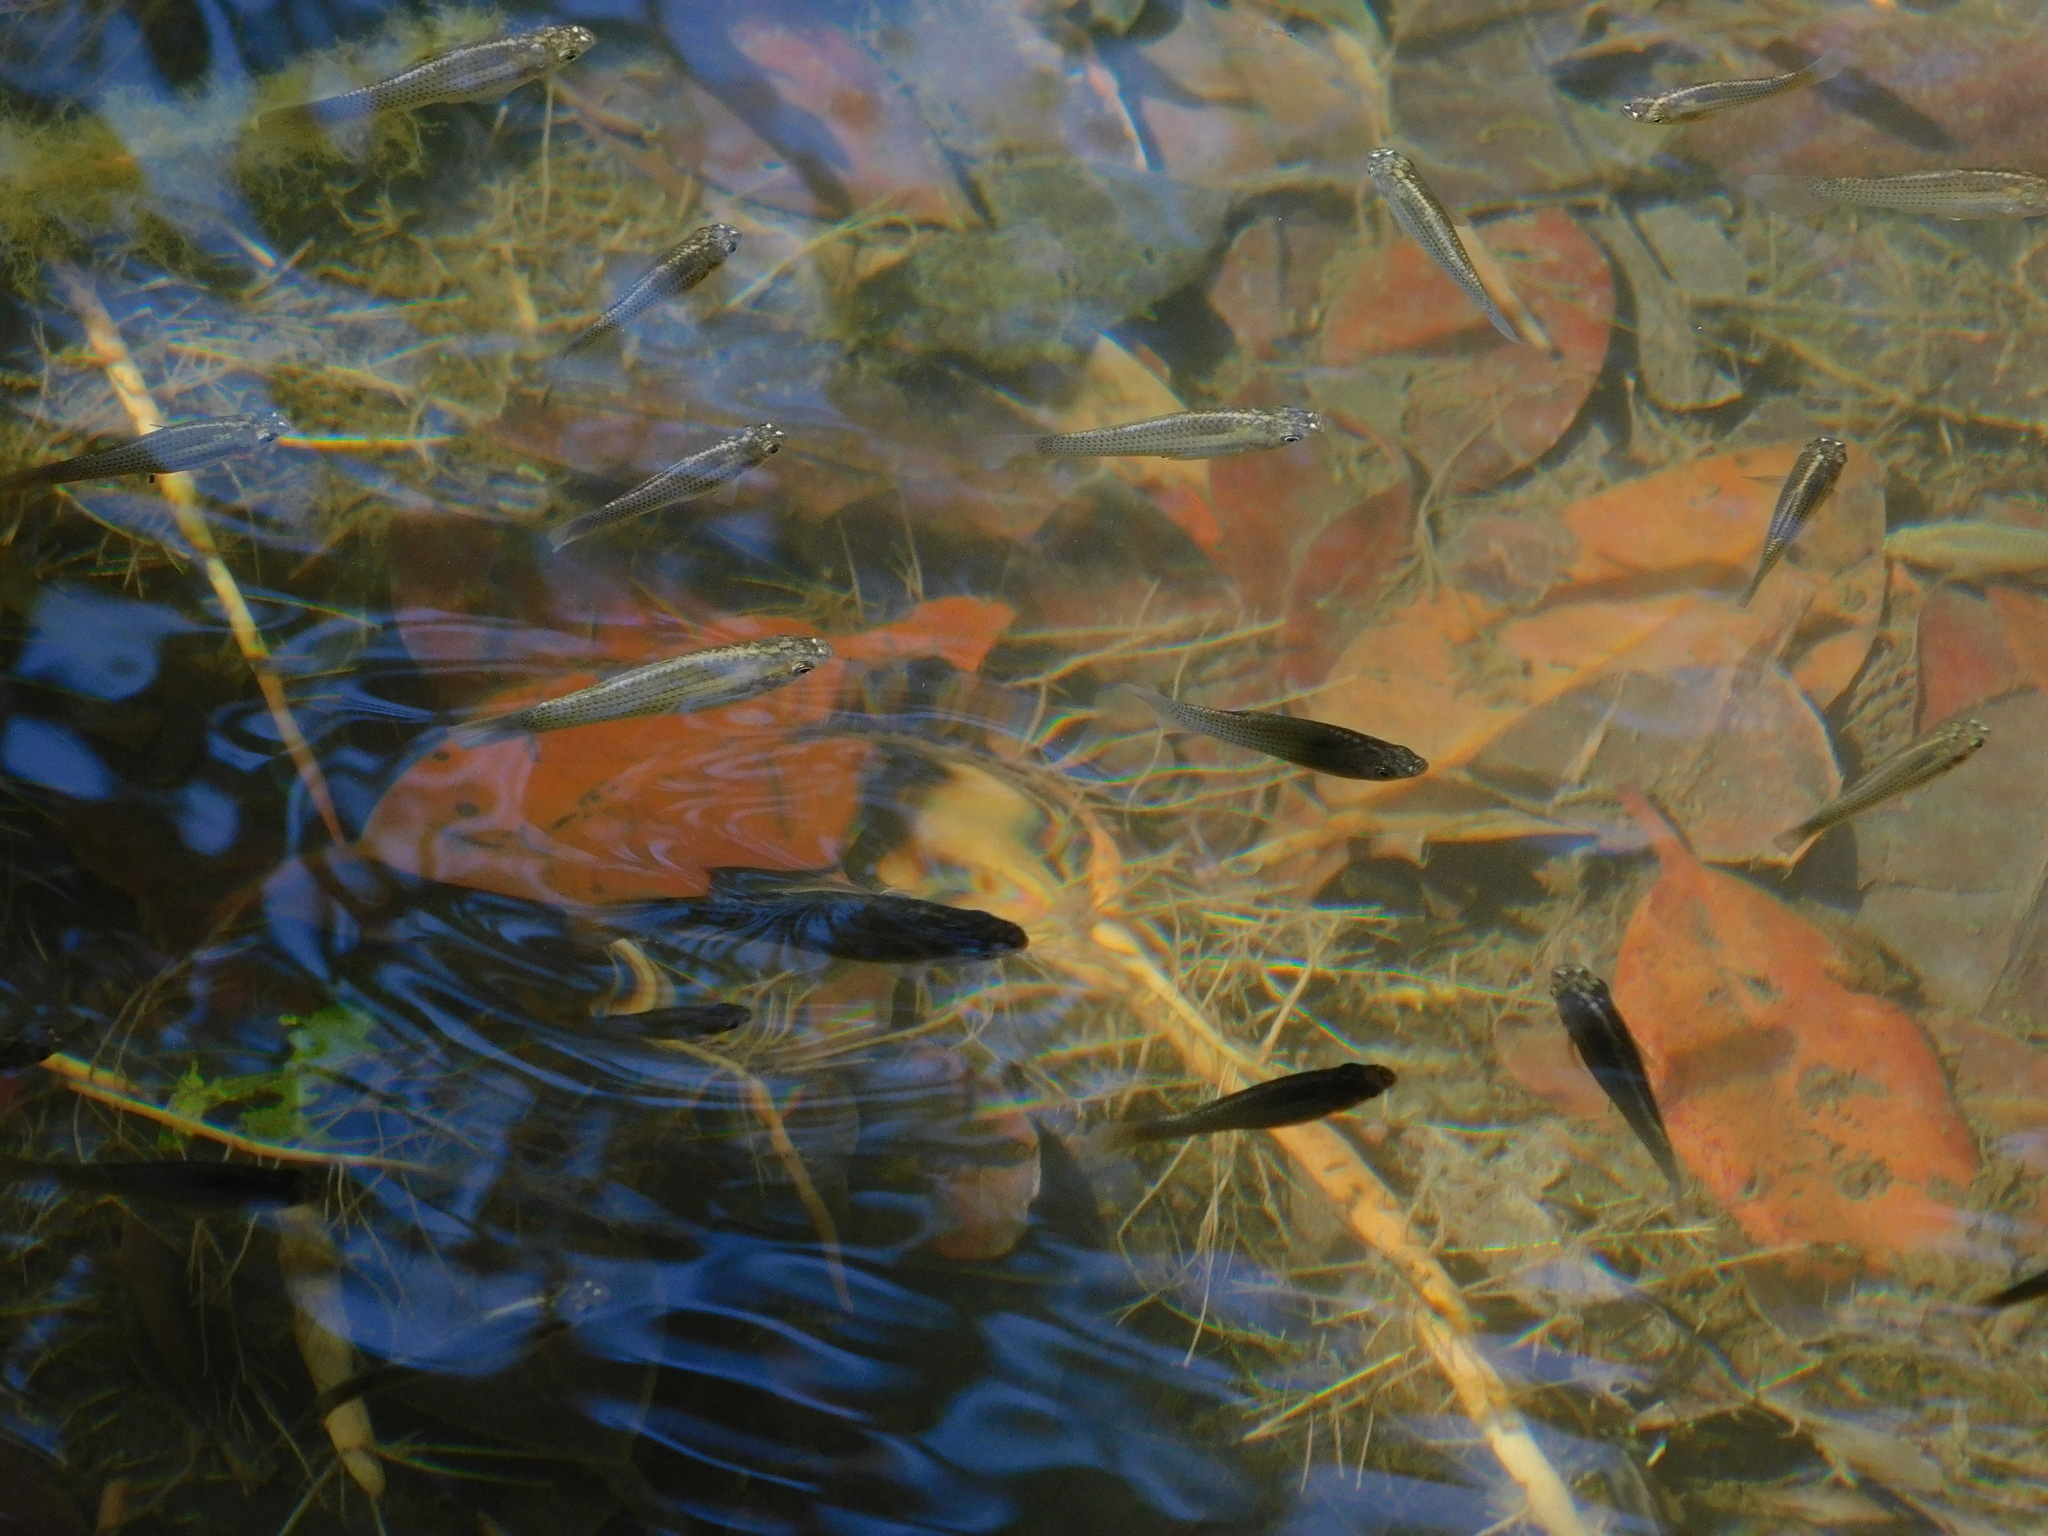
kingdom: Animalia
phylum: Chordata
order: Cyprinodontiformes
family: Poeciliidae
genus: Poecilia
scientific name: Poecilia latipinna
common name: Sailfin molly
